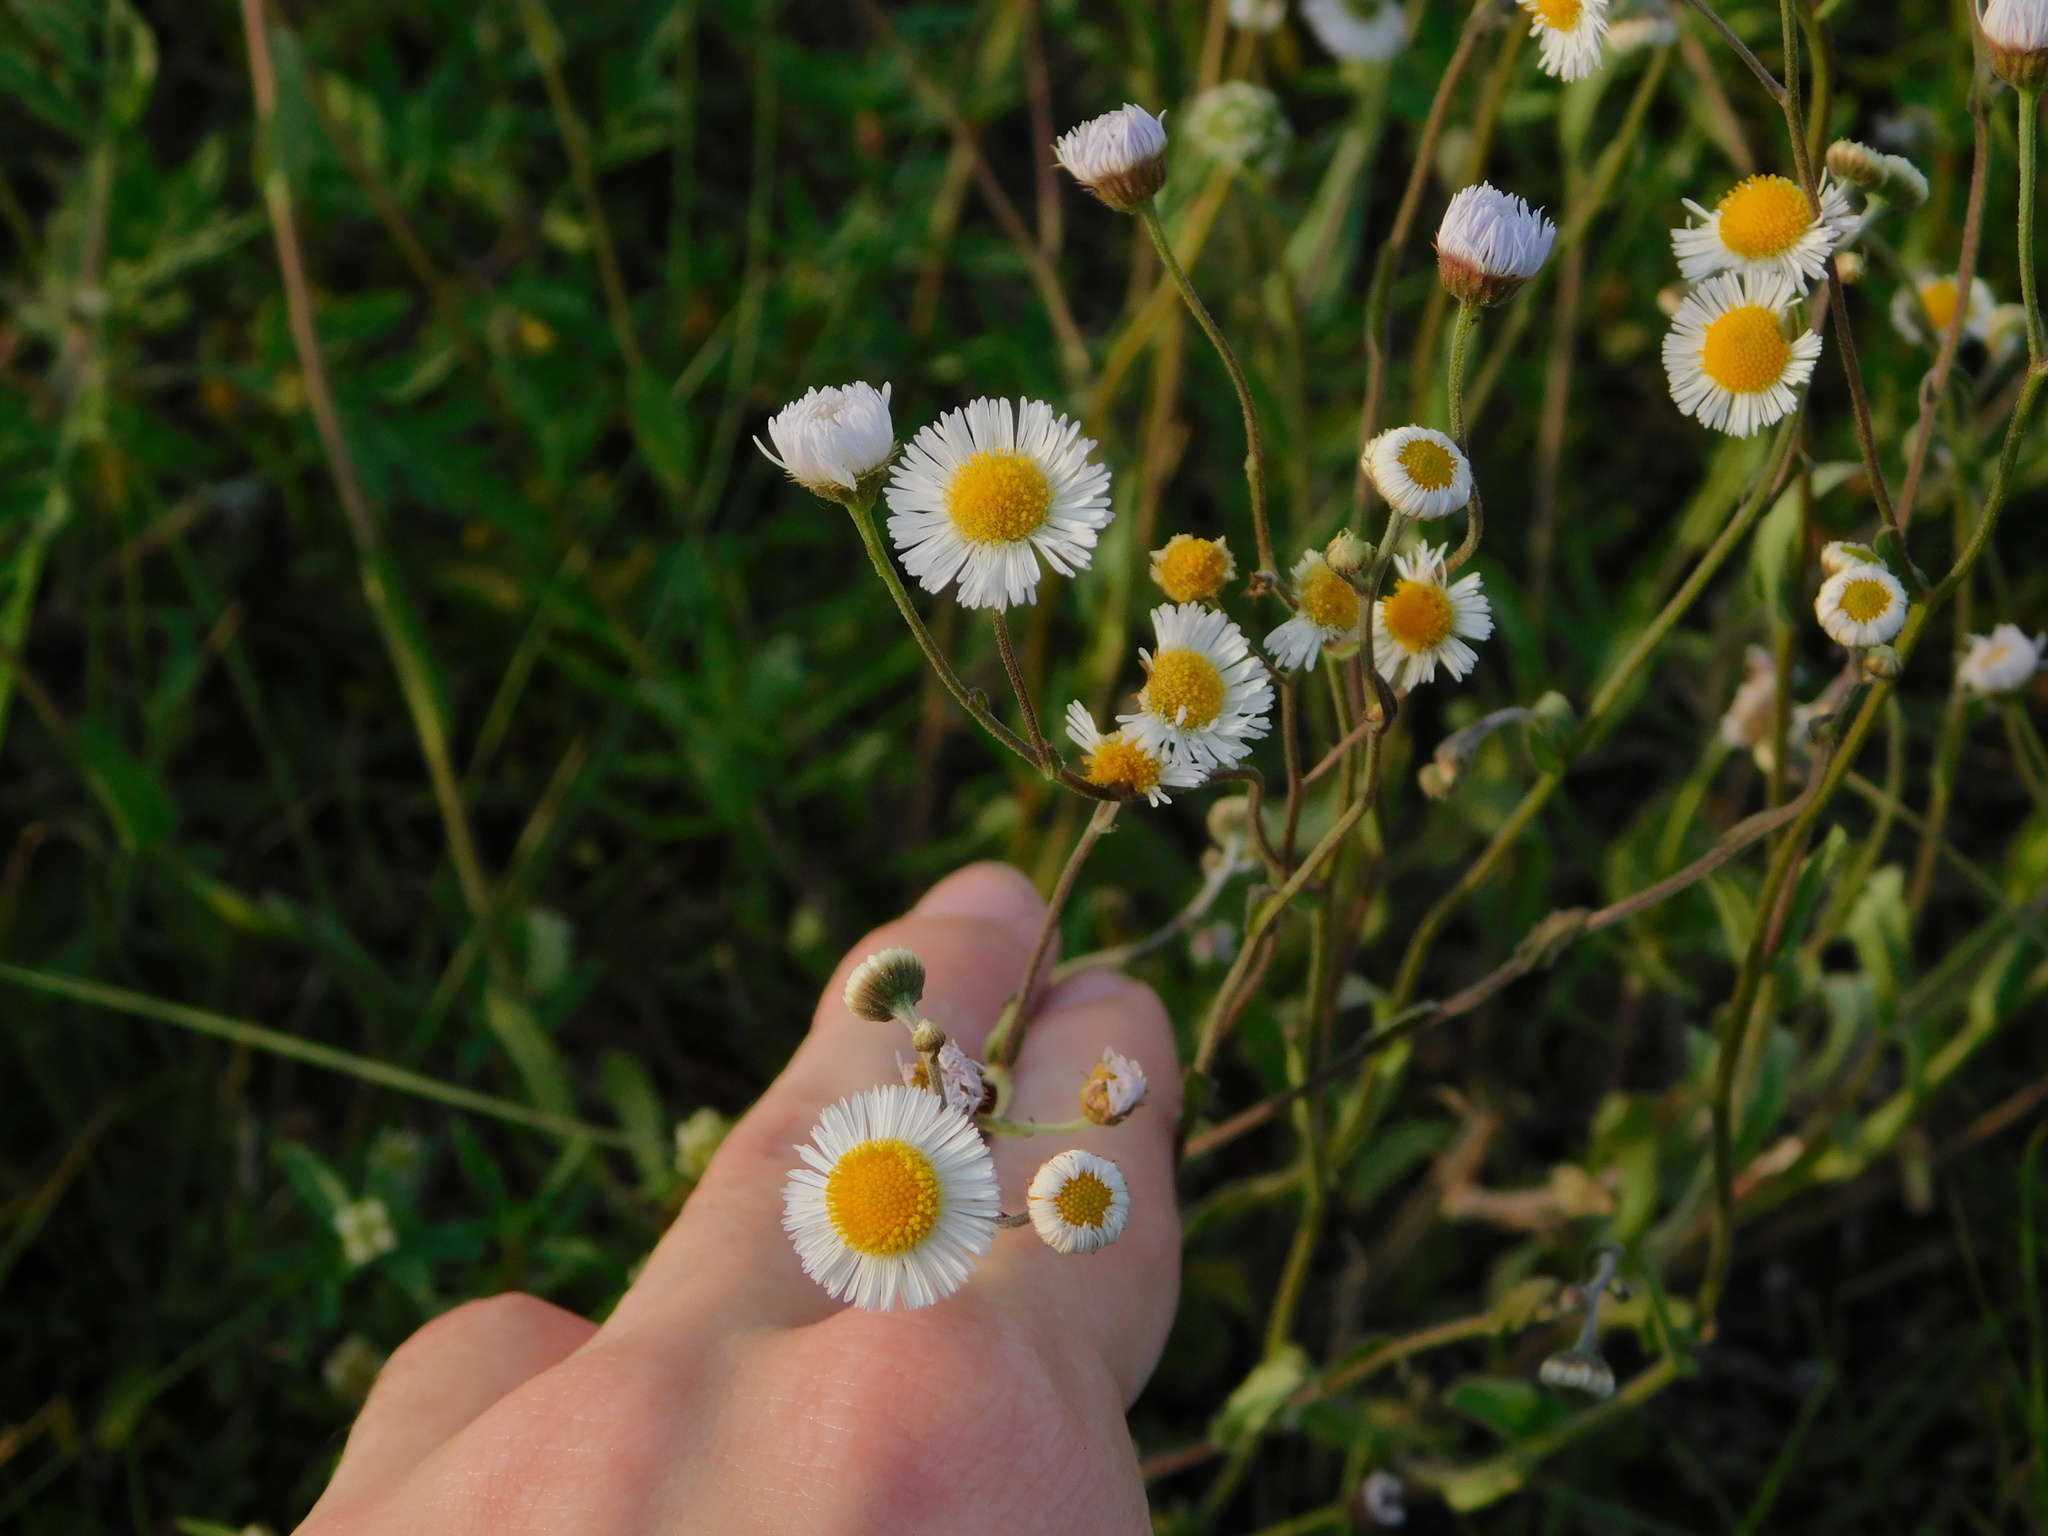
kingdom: Plantae
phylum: Tracheophyta
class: Magnoliopsida
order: Asterales
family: Asteraceae
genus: Erigeron
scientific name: Erigeron quercifolius
